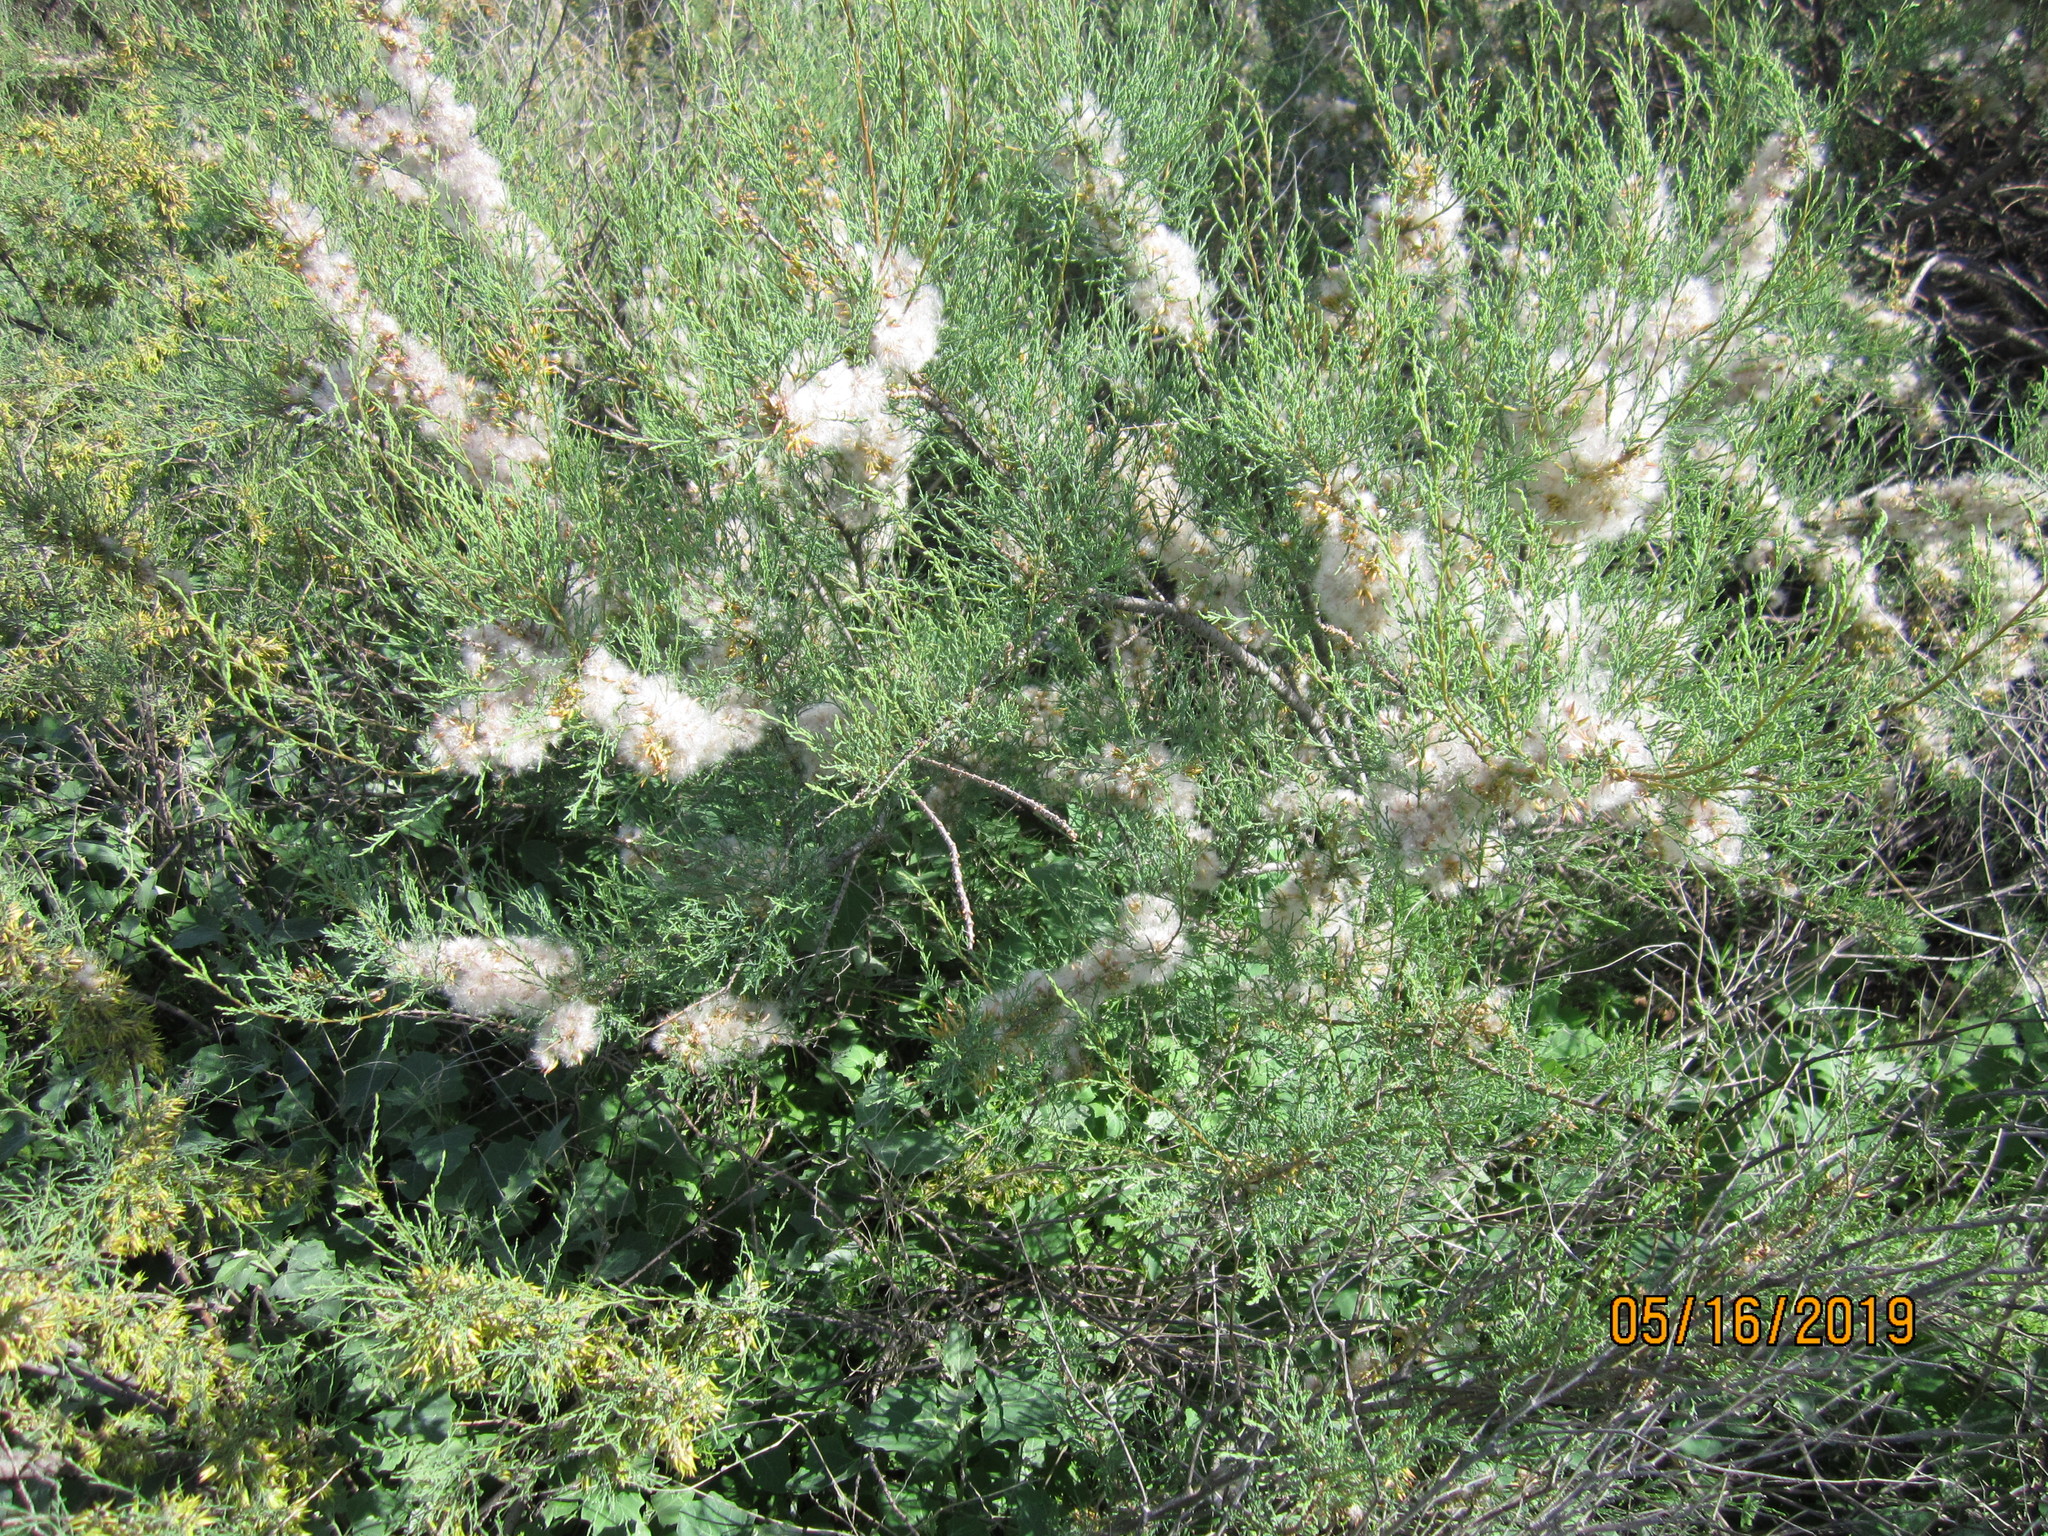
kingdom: Plantae
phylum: Tracheophyta
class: Magnoliopsida
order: Caryophyllales
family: Tamaricaceae
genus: Tamarix
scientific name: Tamarix gracilis
